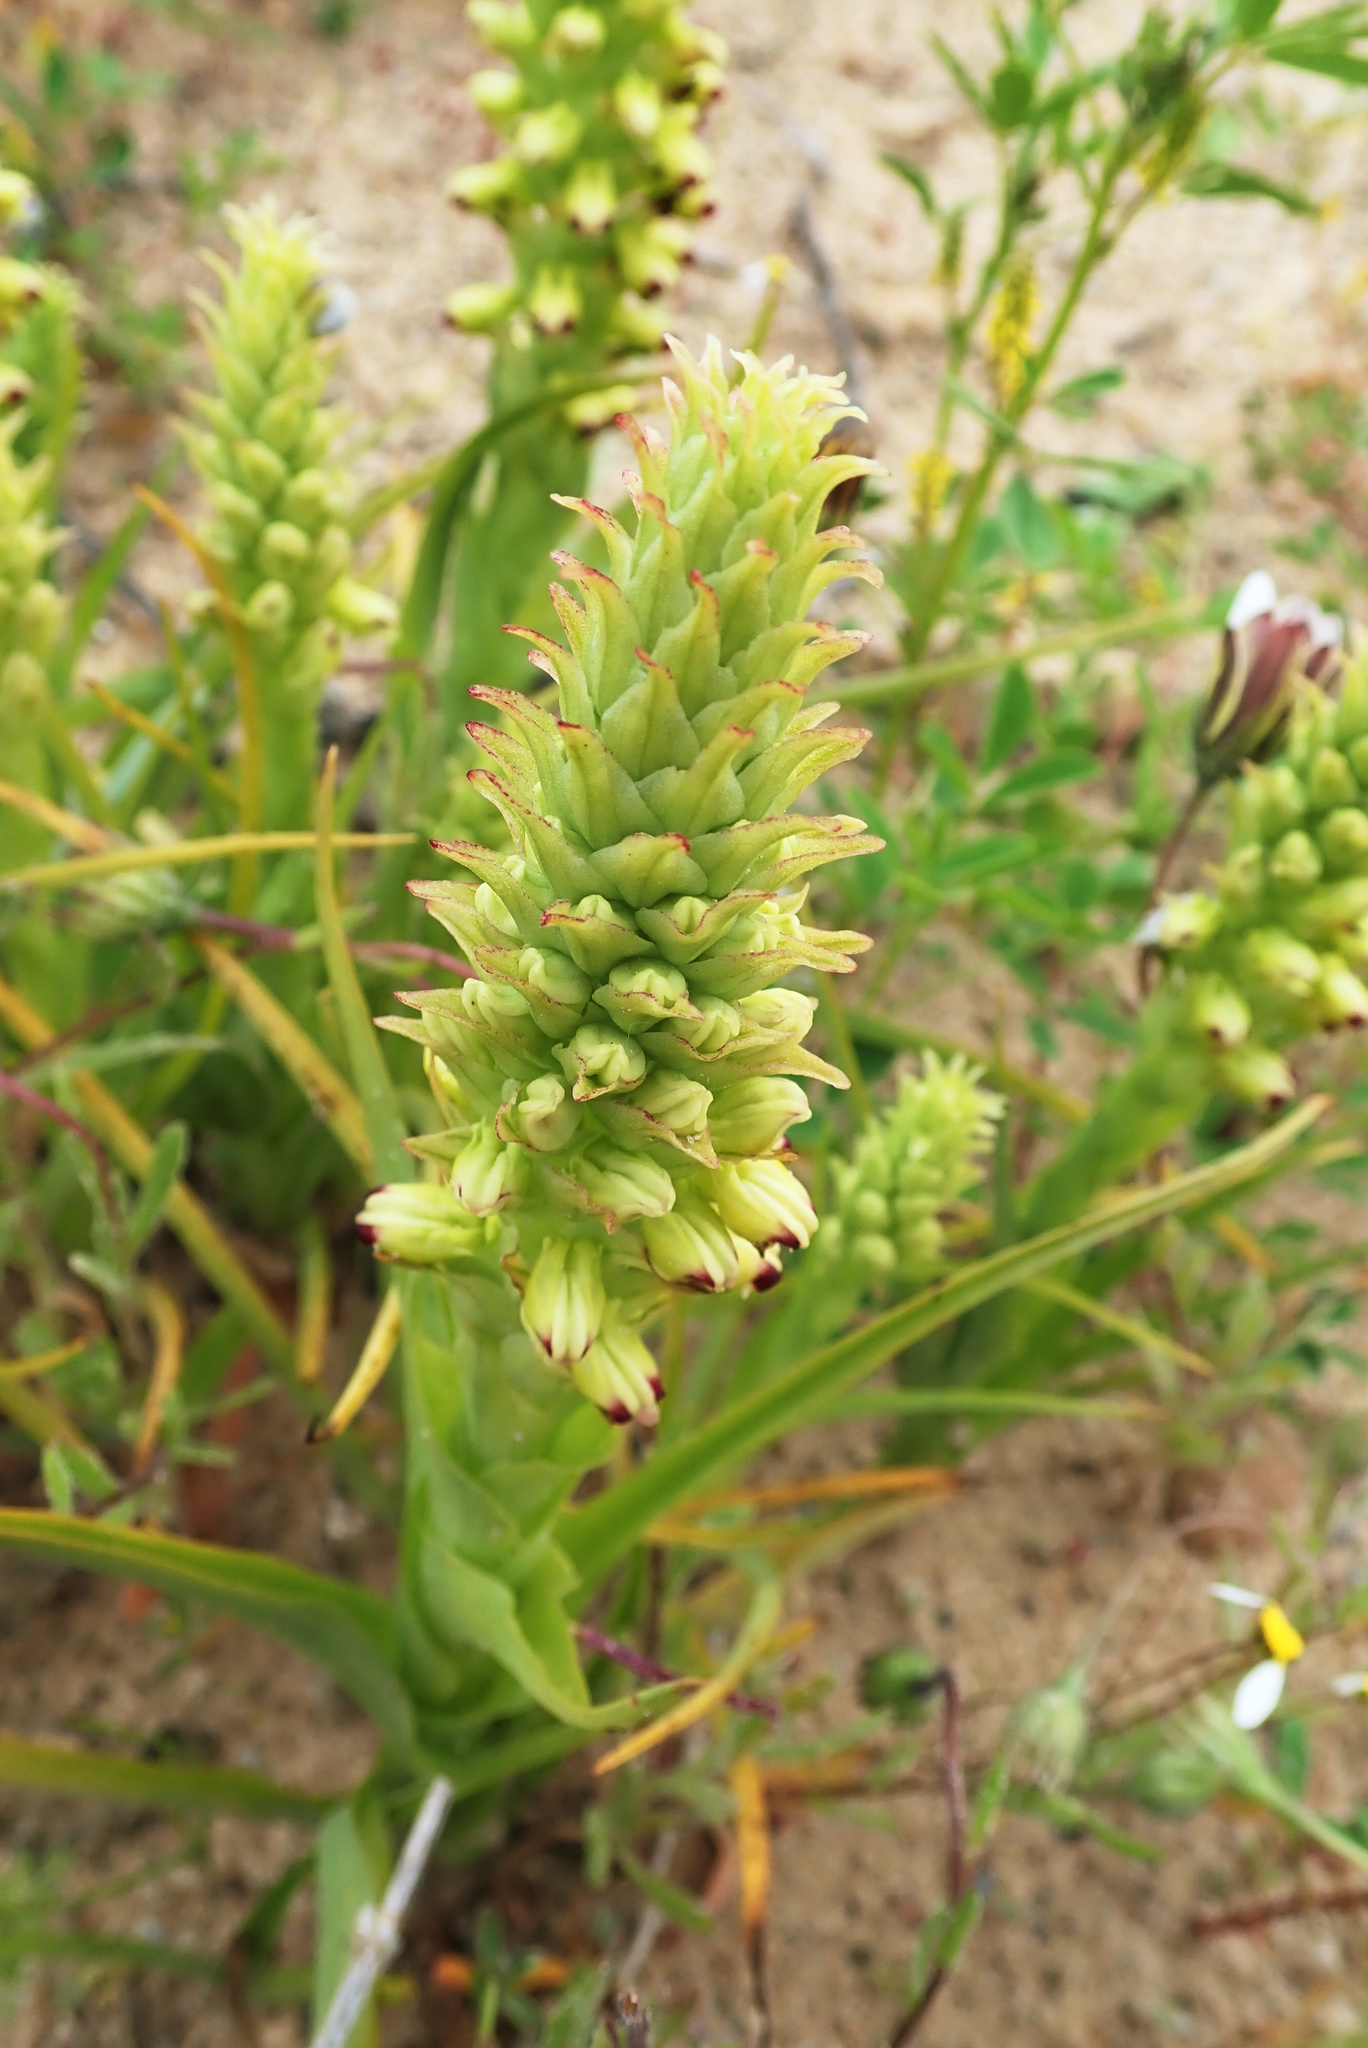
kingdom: Plantae
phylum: Tracheophyta
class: Liliopsida
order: Asparagales
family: Orchidaceae
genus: Corycium
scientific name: Corycium orobanchoides
